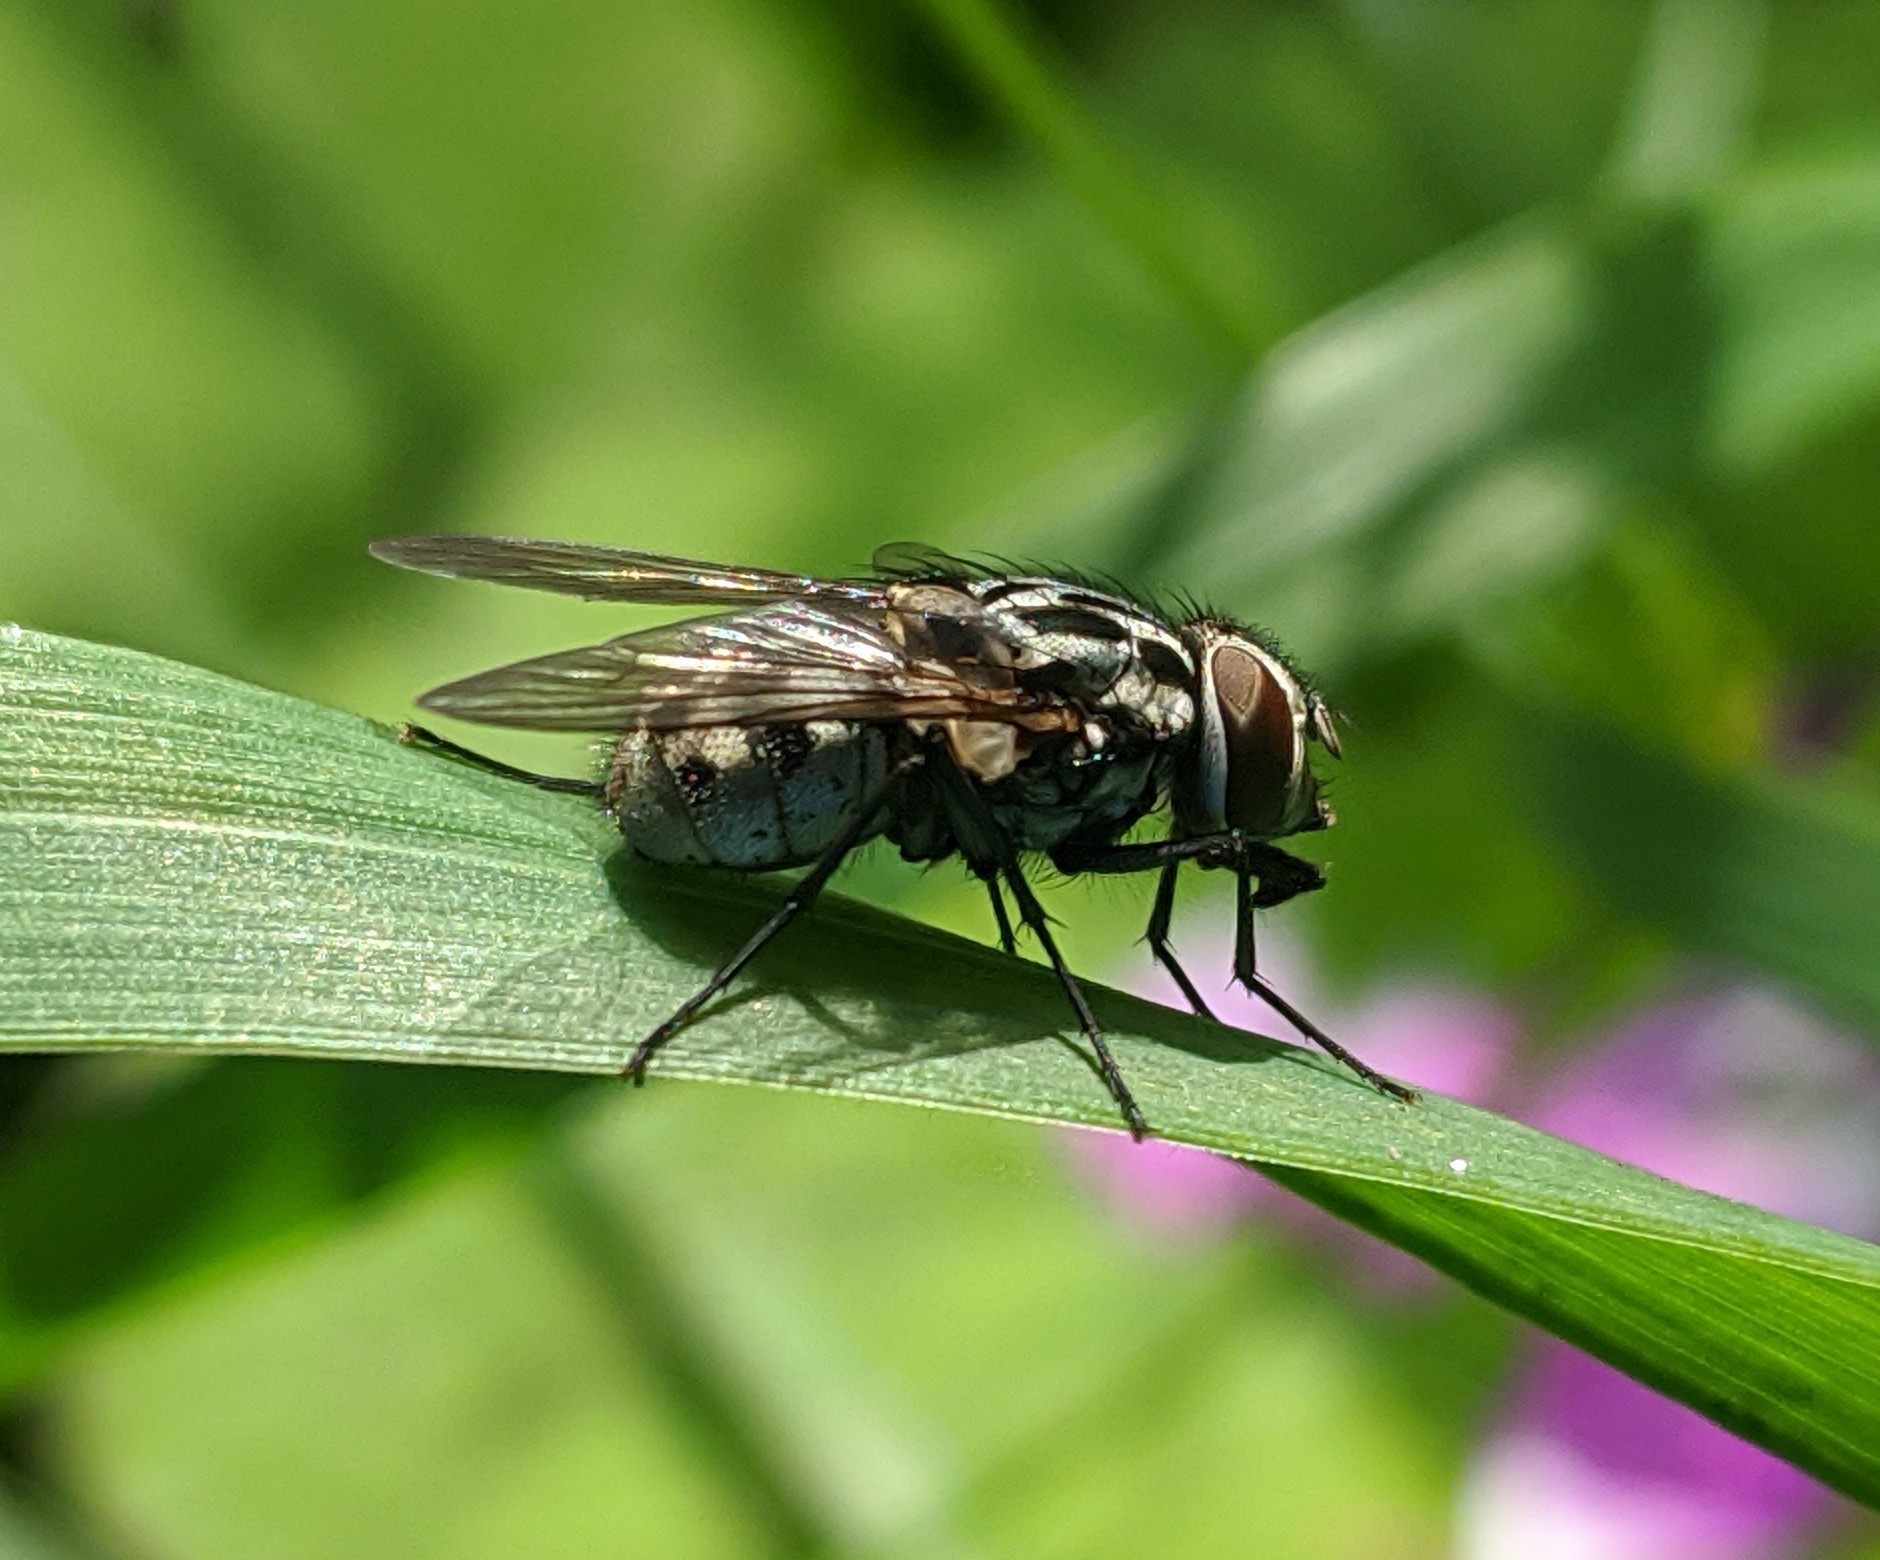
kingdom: Animalia
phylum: Arthropoda
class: Insecta
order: Diptera
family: Muscidae
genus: Graphomya
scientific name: Graphomya maculata
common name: Muscid fly
